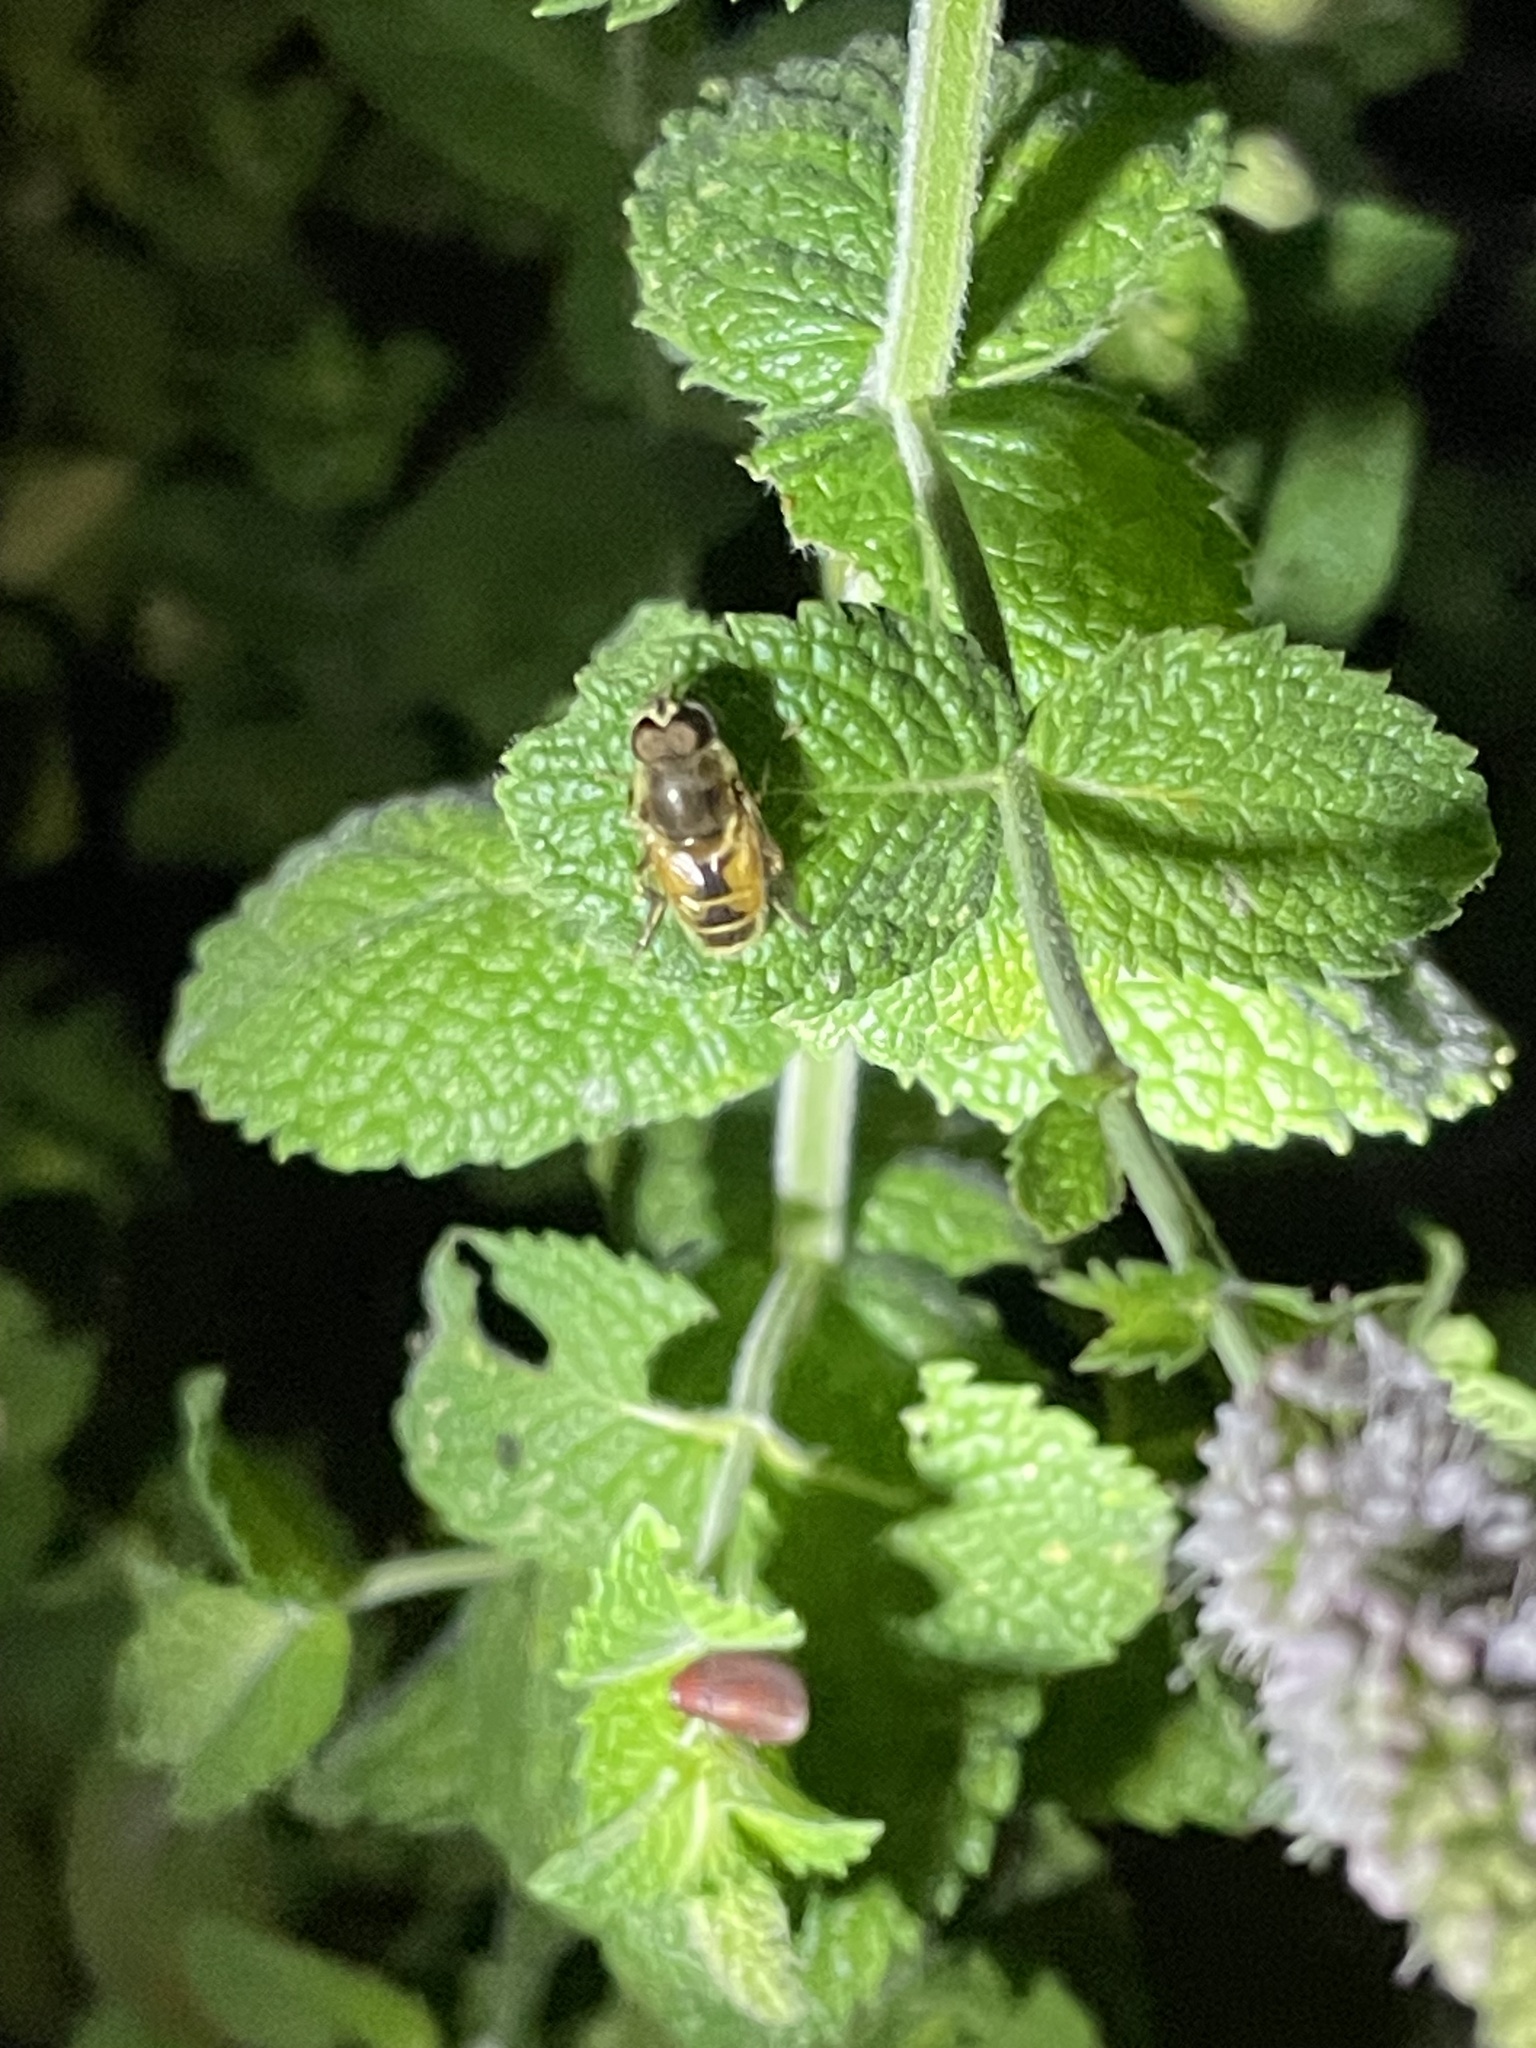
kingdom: Animalia
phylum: Arthropoda
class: Insecta
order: Diptera
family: Syrphidae
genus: Eristalis
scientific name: Eristalis arbustorum
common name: Hover fly
